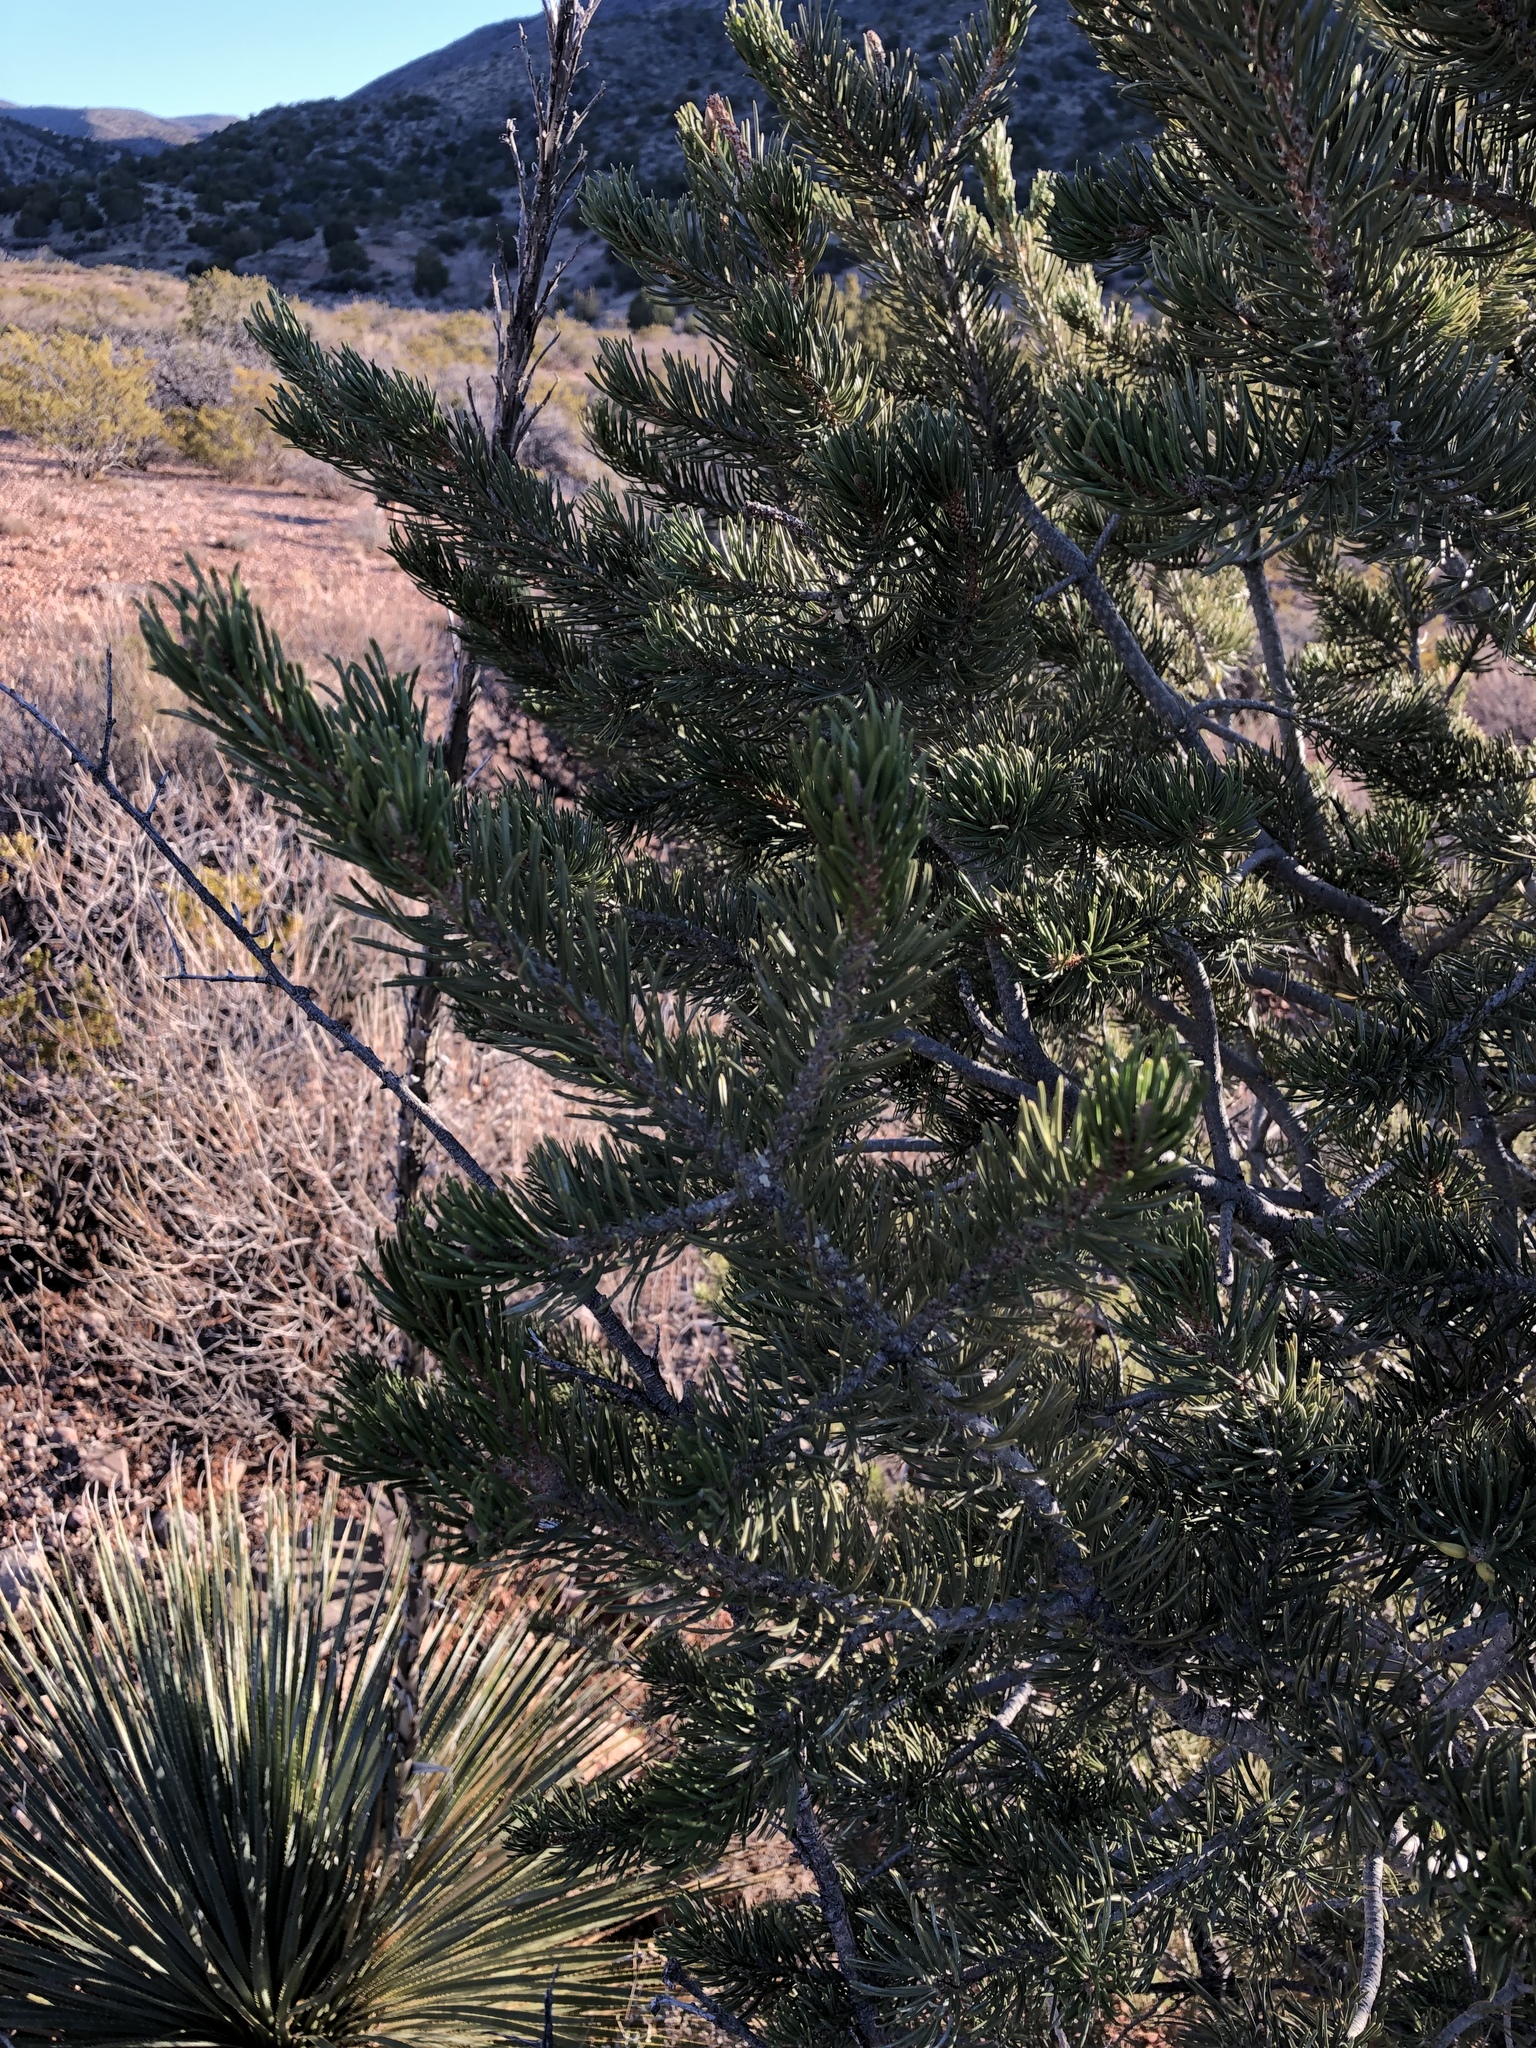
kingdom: Plantae
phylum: Tracheophyta
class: Pinopsida
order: Pinales
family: Pinaceae
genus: Pinus
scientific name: Pinus edulis
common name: Colorado pinyon
